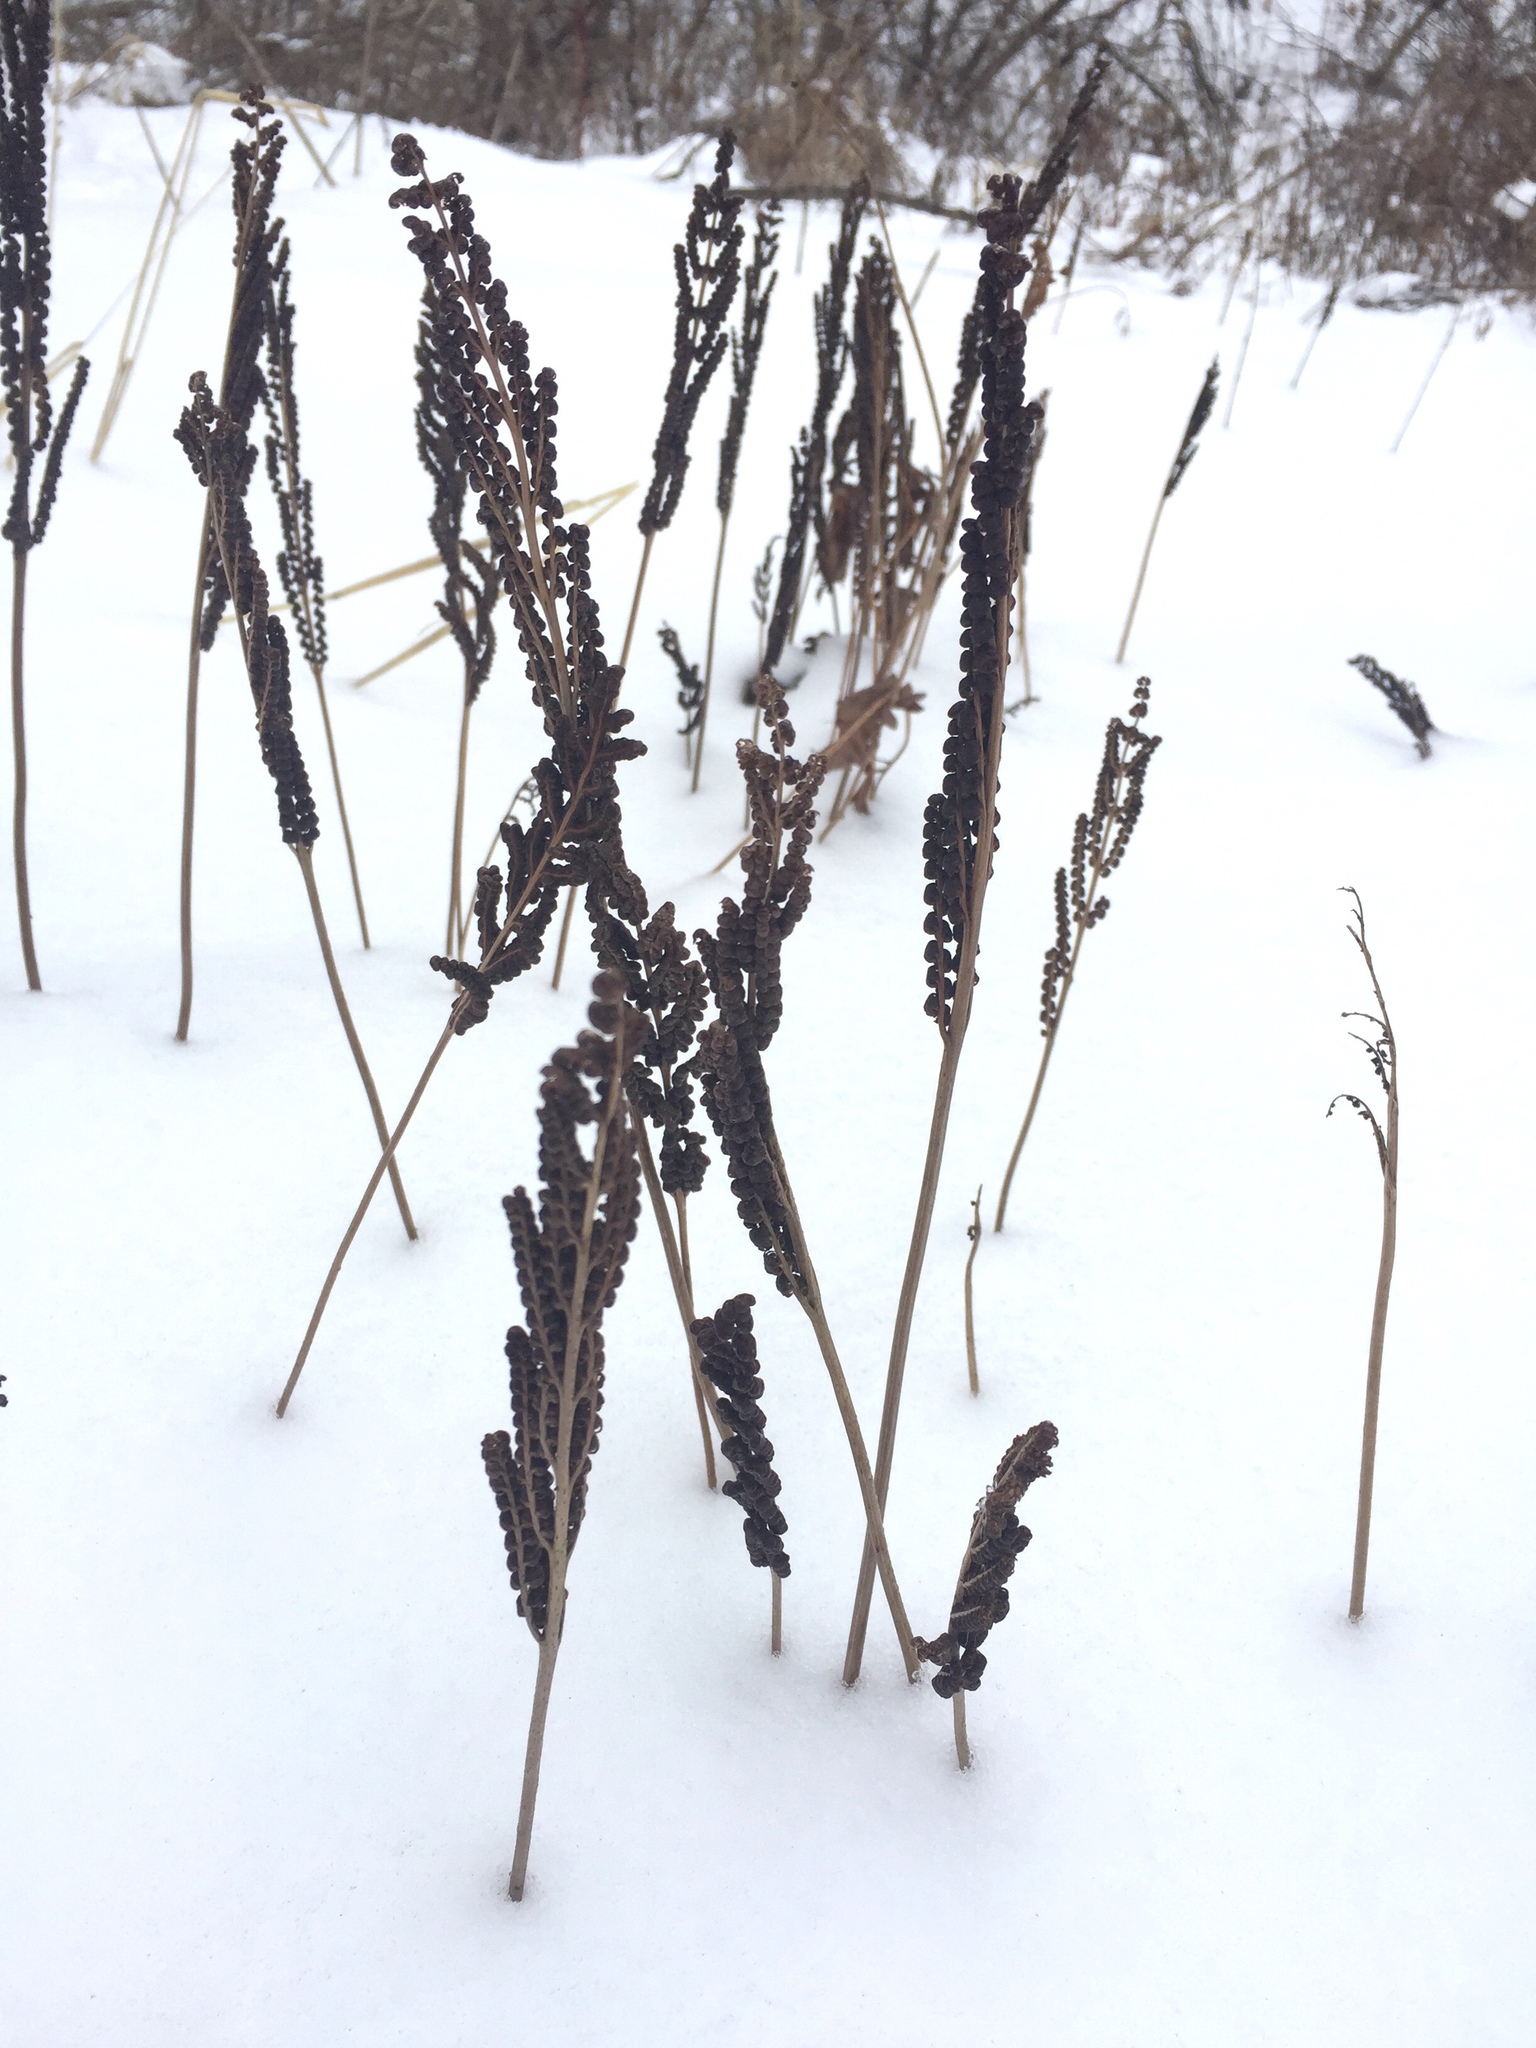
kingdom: Plantae
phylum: Tracheophyta
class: Polypodiopsida
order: Polypodiales
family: Onocleaceae
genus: Onoclea
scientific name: Onoclea sensibilis
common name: Sensitive fern
